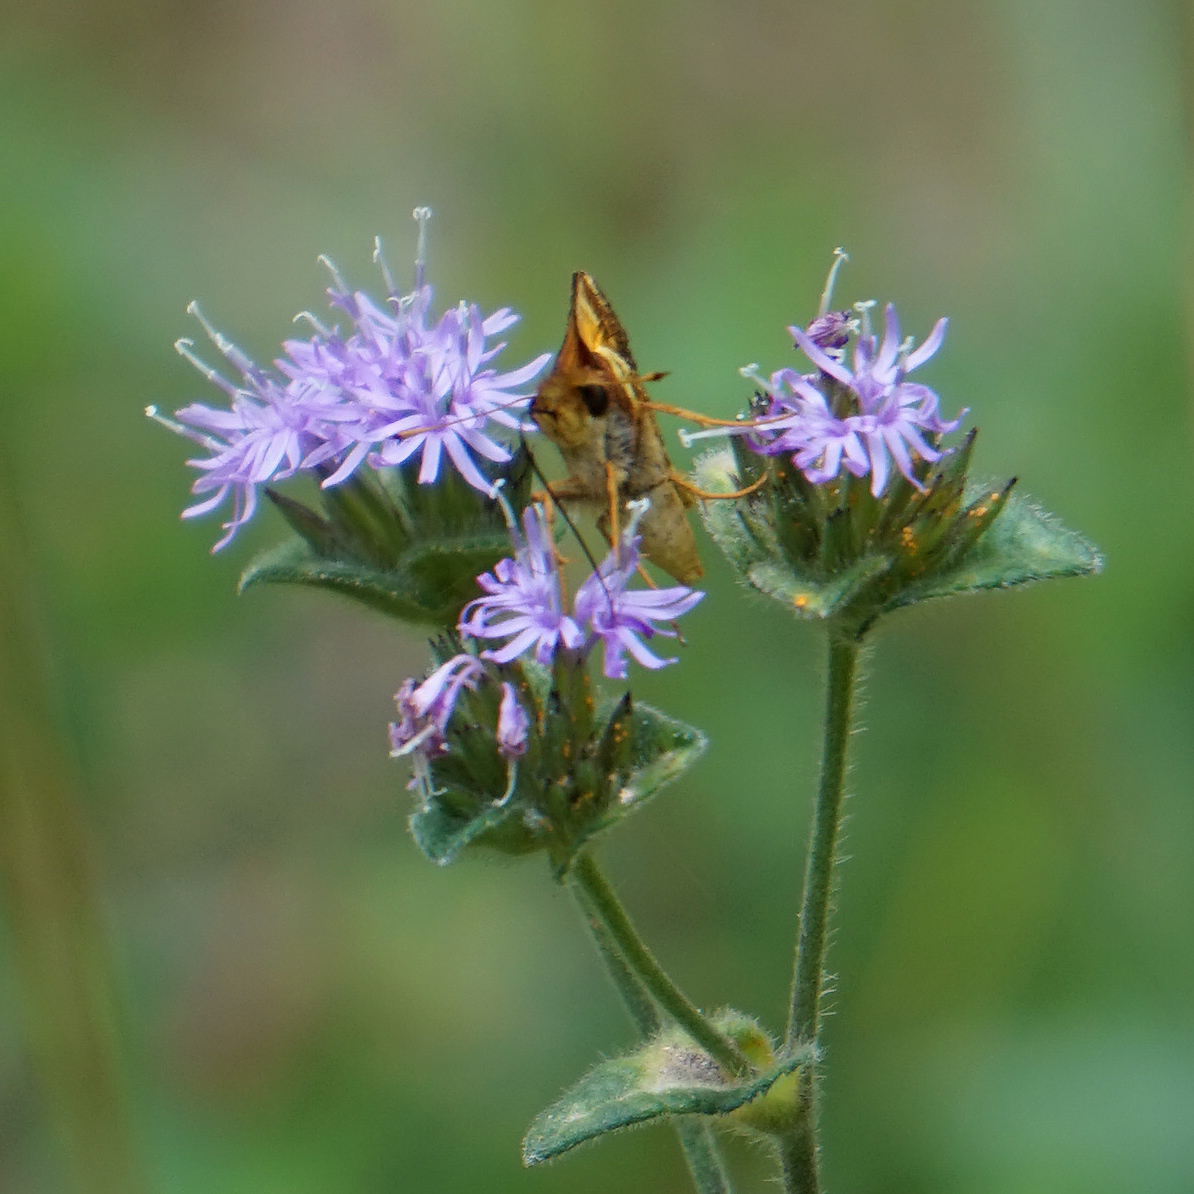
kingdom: Animalia
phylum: Arthropoda
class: Insecta
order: Lepidoptera
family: Hesperiidae
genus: Lon
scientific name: Lon zabulon
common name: Zabulon skipper
